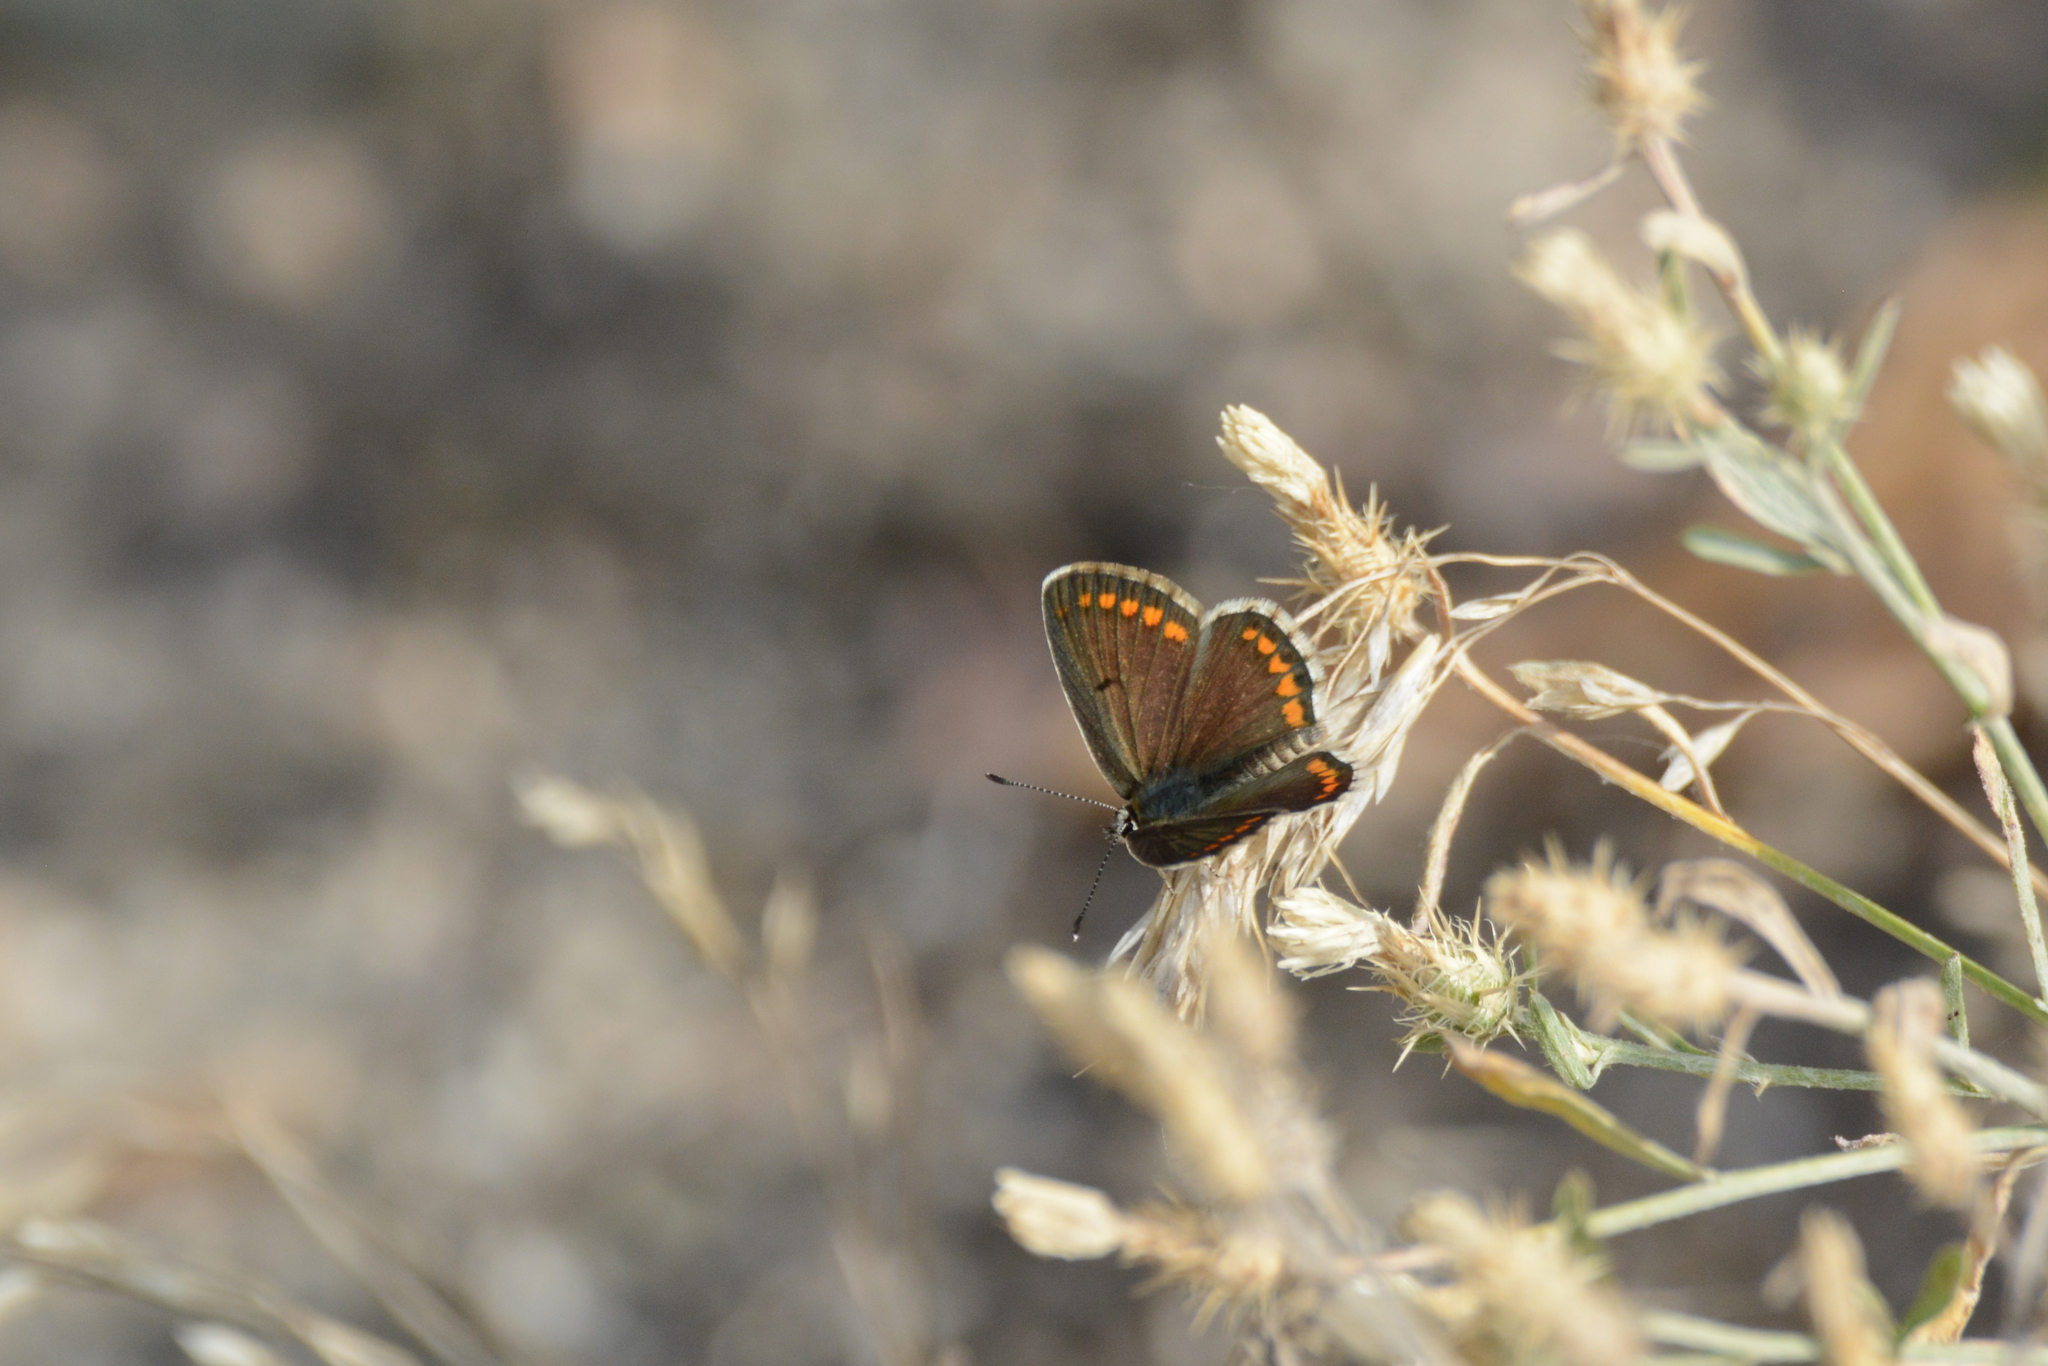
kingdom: Animalia
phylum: Arthropoda
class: Insecta
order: Lepidoptera
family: Lycaenidae
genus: Aricia
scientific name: Aricia agestis
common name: Brown argus
